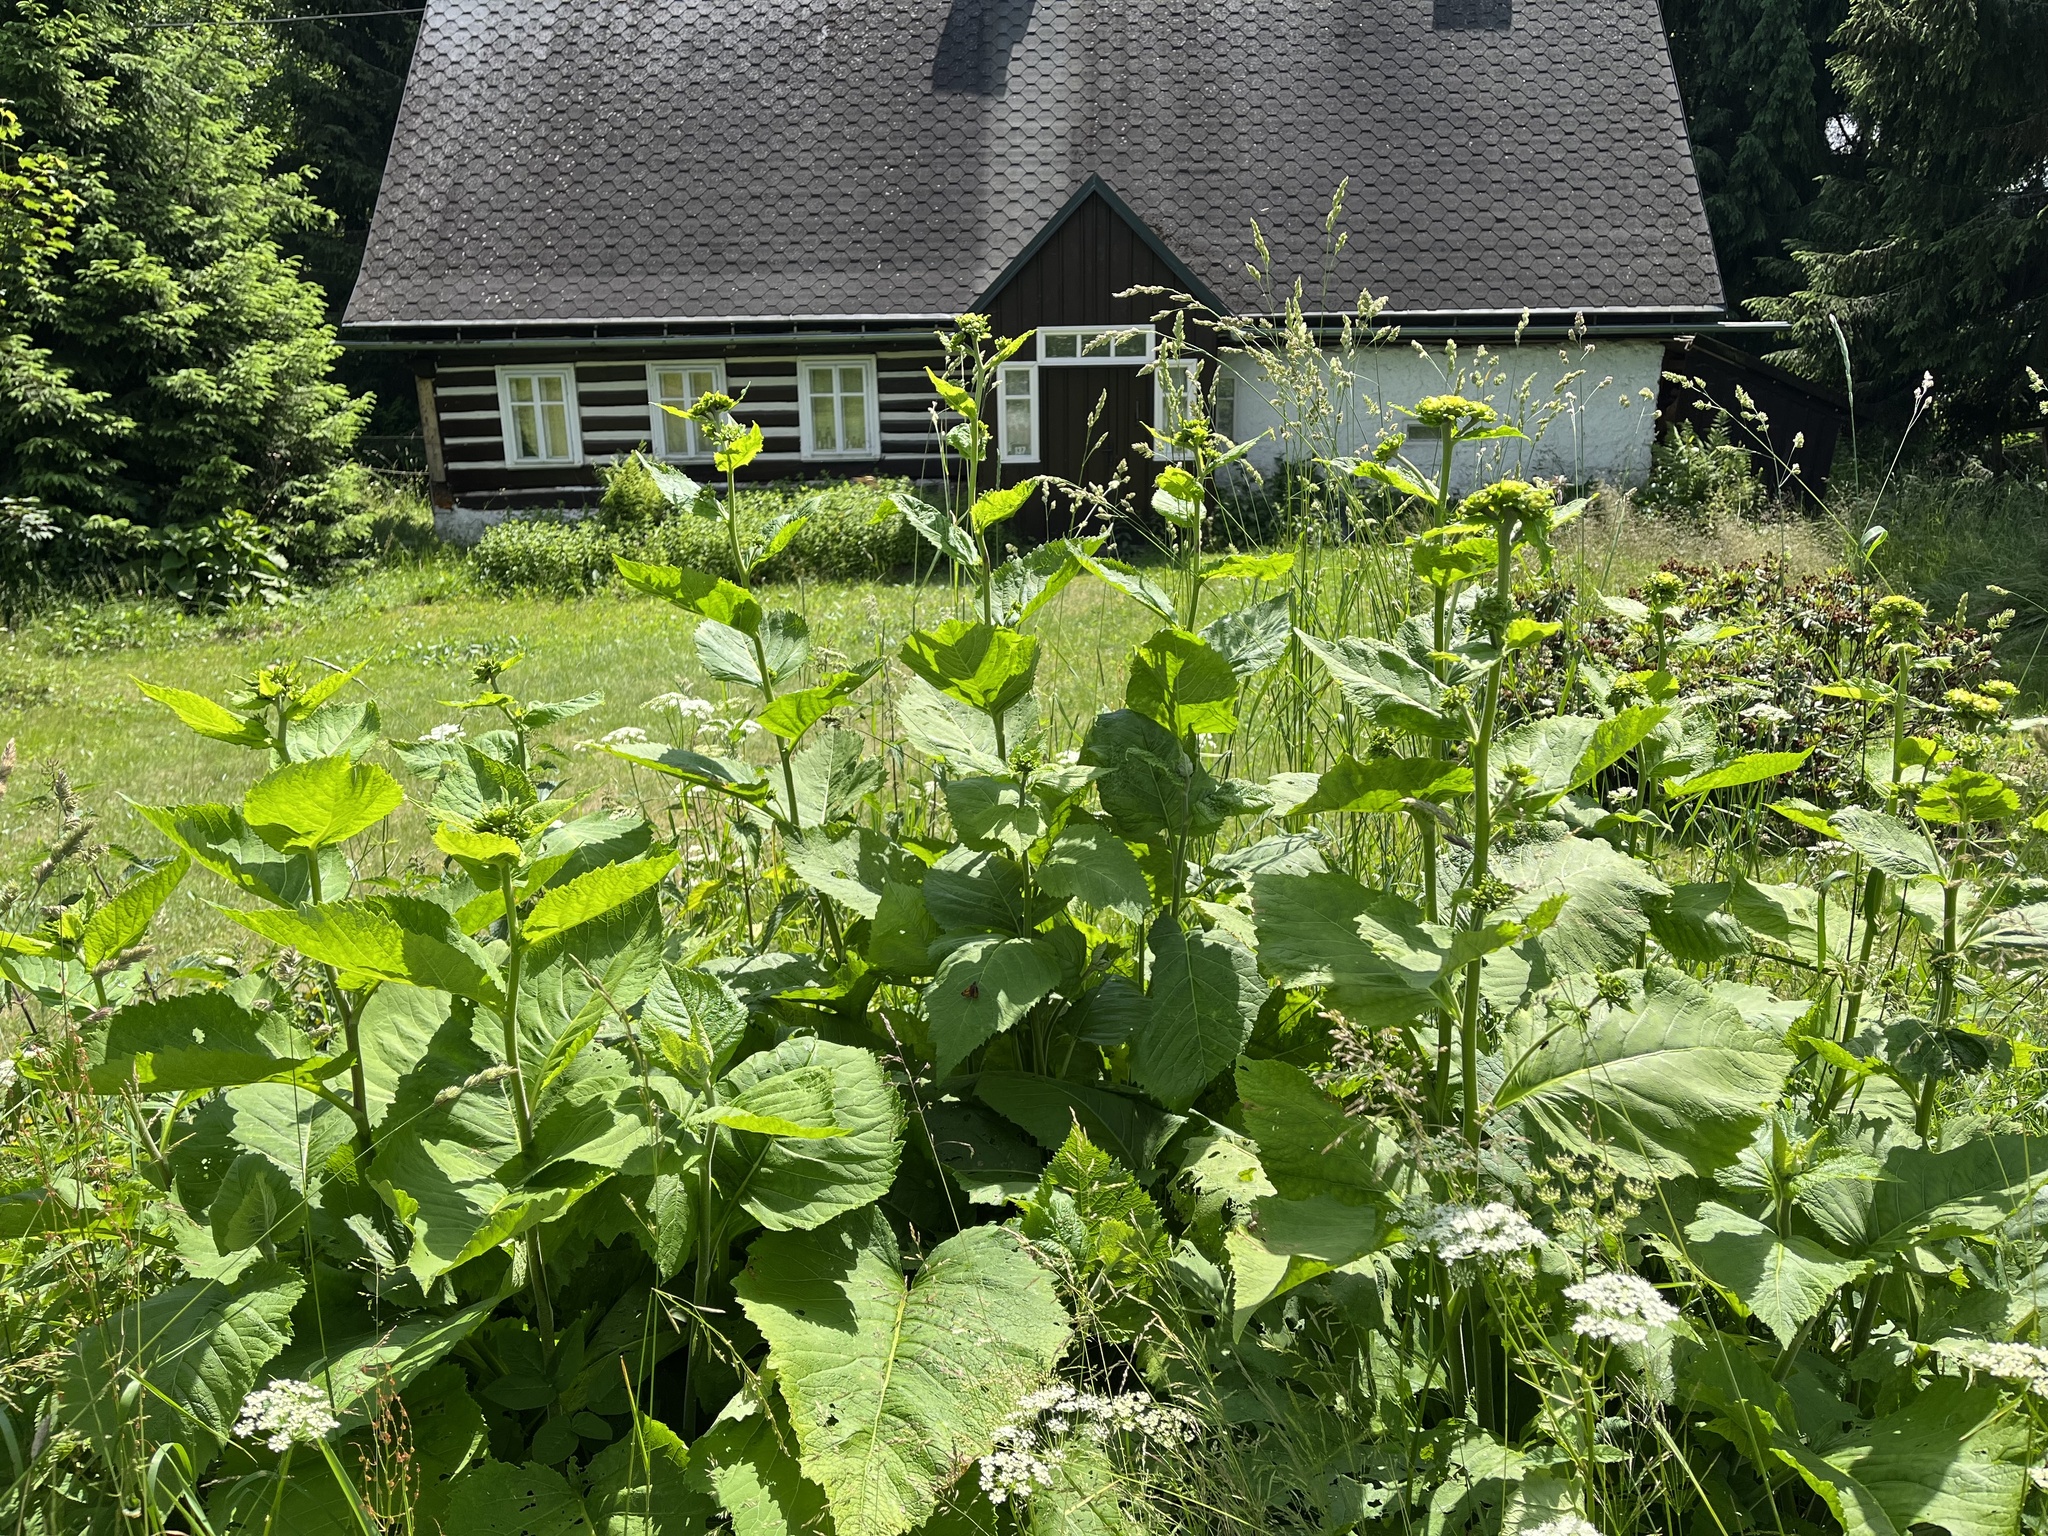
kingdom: Plantae
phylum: Tracheophyta
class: Magnoliopsida
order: Asterales
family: Asteraceae
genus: Telekia
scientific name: Telekia speciosa
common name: Yellow oxeye
